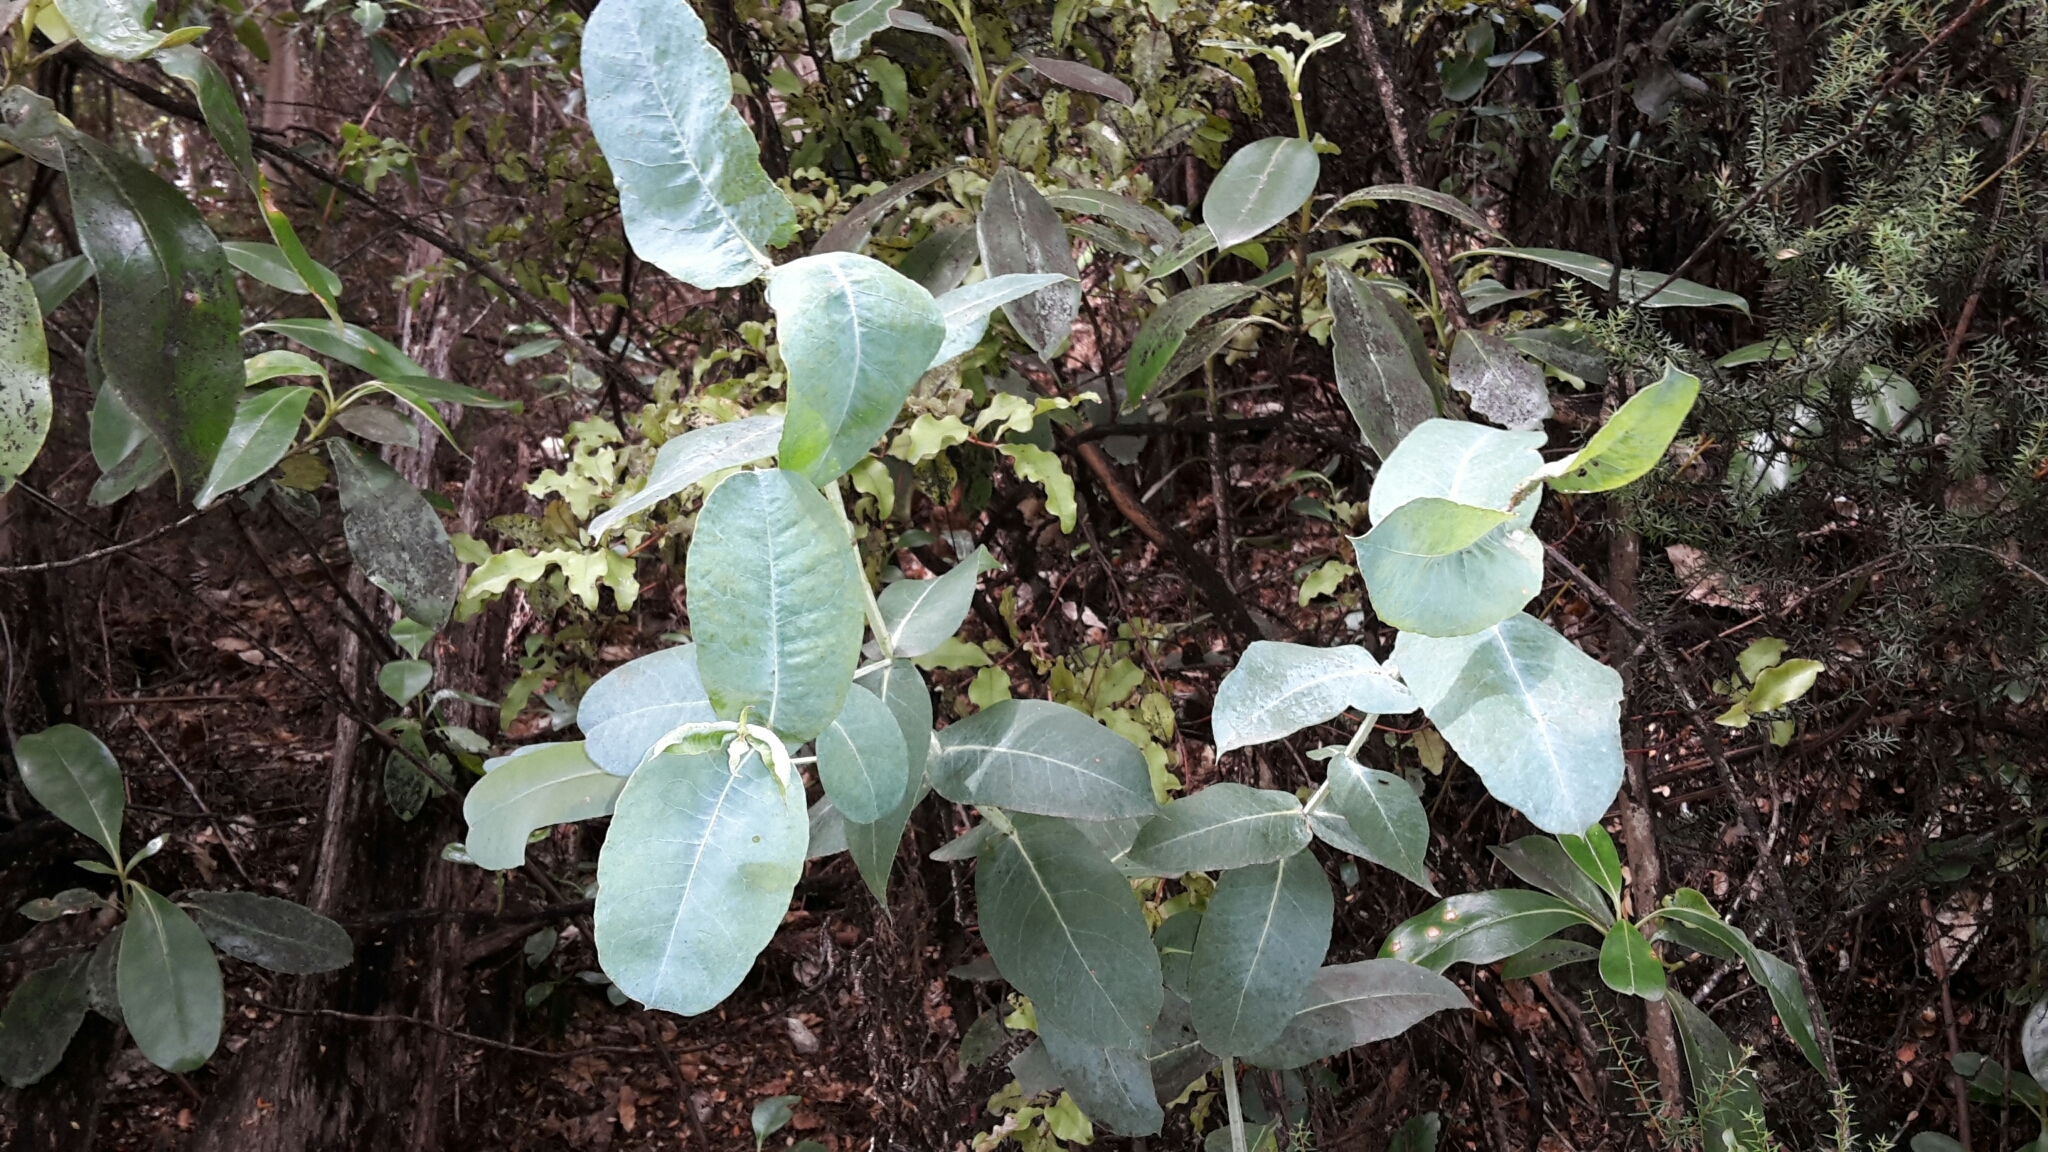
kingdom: Plantae
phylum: Tracheophyta
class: Magnoliopsida
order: Myrtales
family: Myrtaceae
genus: Eucalyptus
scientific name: Eucalyptus globulus
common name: Southern blue-gum
